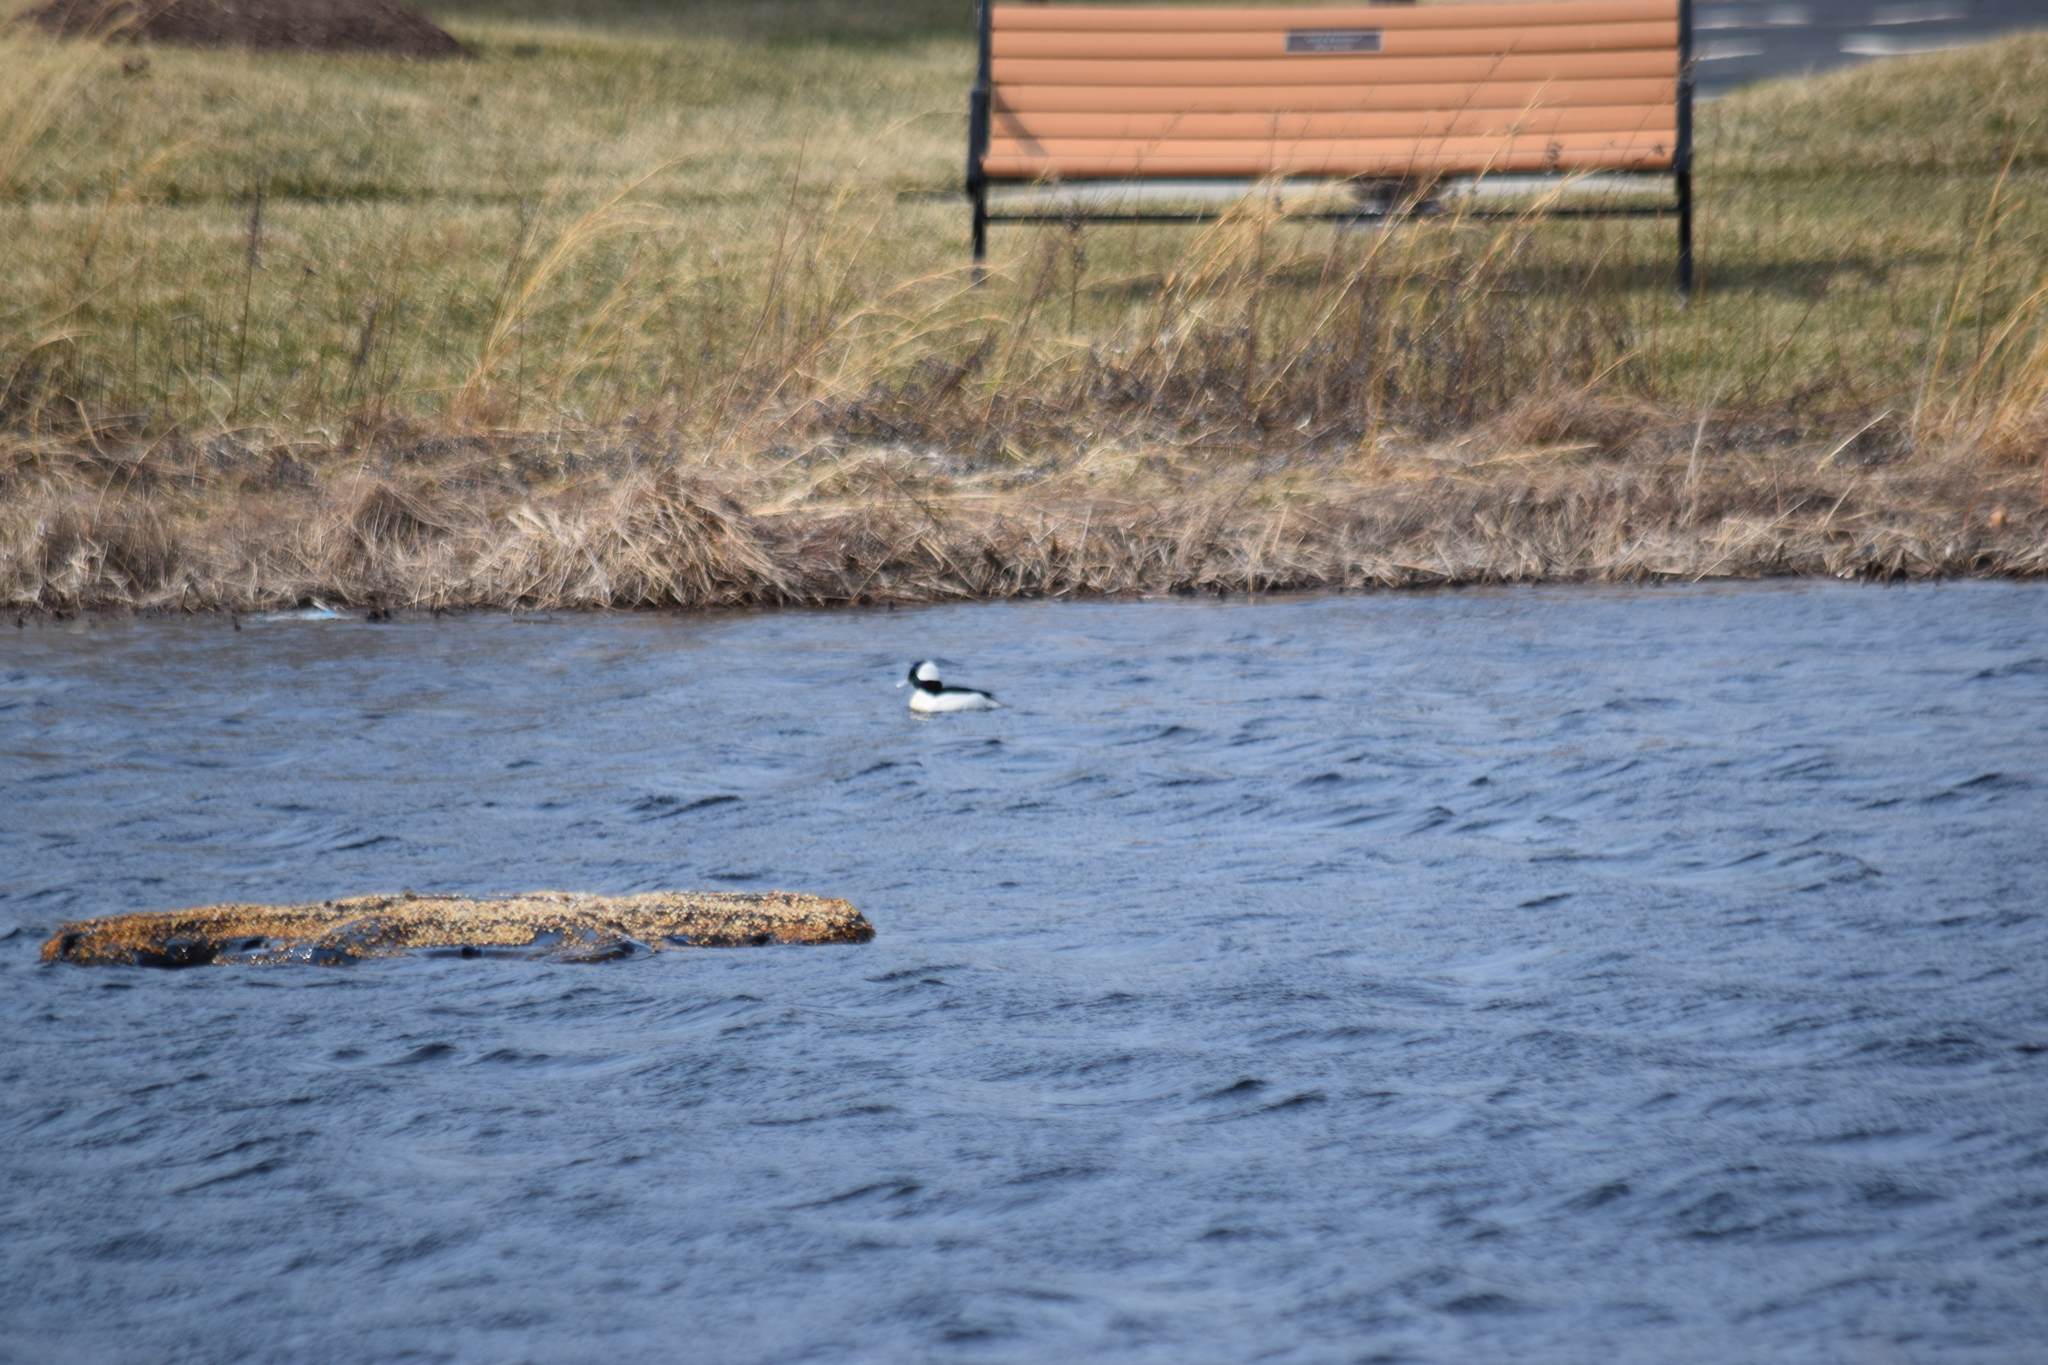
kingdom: Animalia
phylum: Chordata
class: Aves
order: Anseriformes
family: Anatidae
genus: Bucephala
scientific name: Bucephala albeola
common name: Bufflehead
